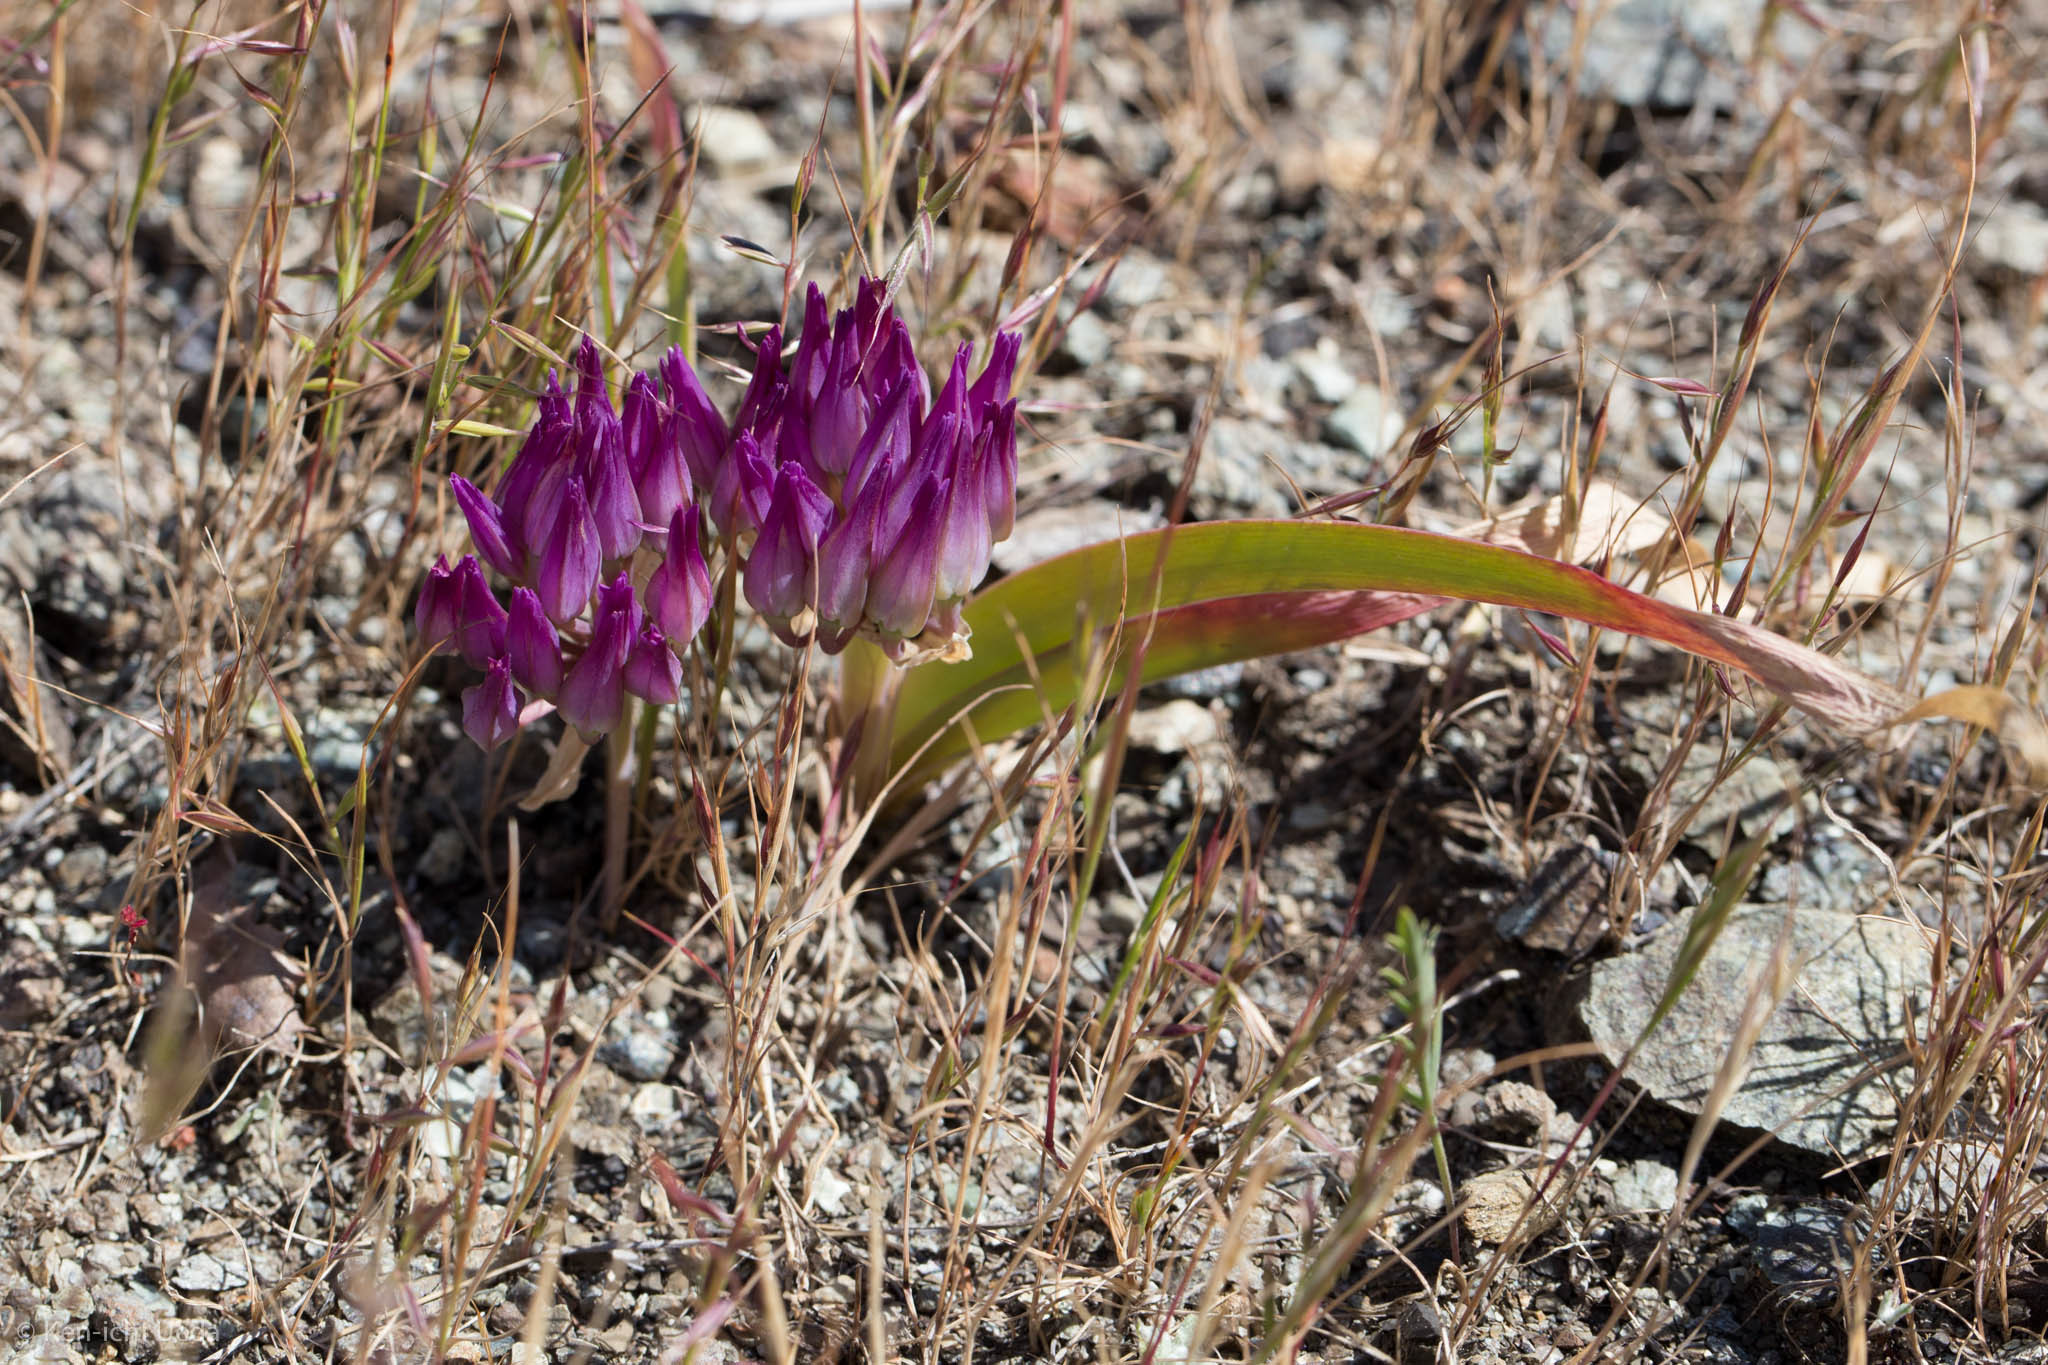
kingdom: Plantae
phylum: Tracheophyta
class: Liliopsida
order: Asparagales
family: Amaryllidaceae
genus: Allium
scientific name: Allium falcifolium
